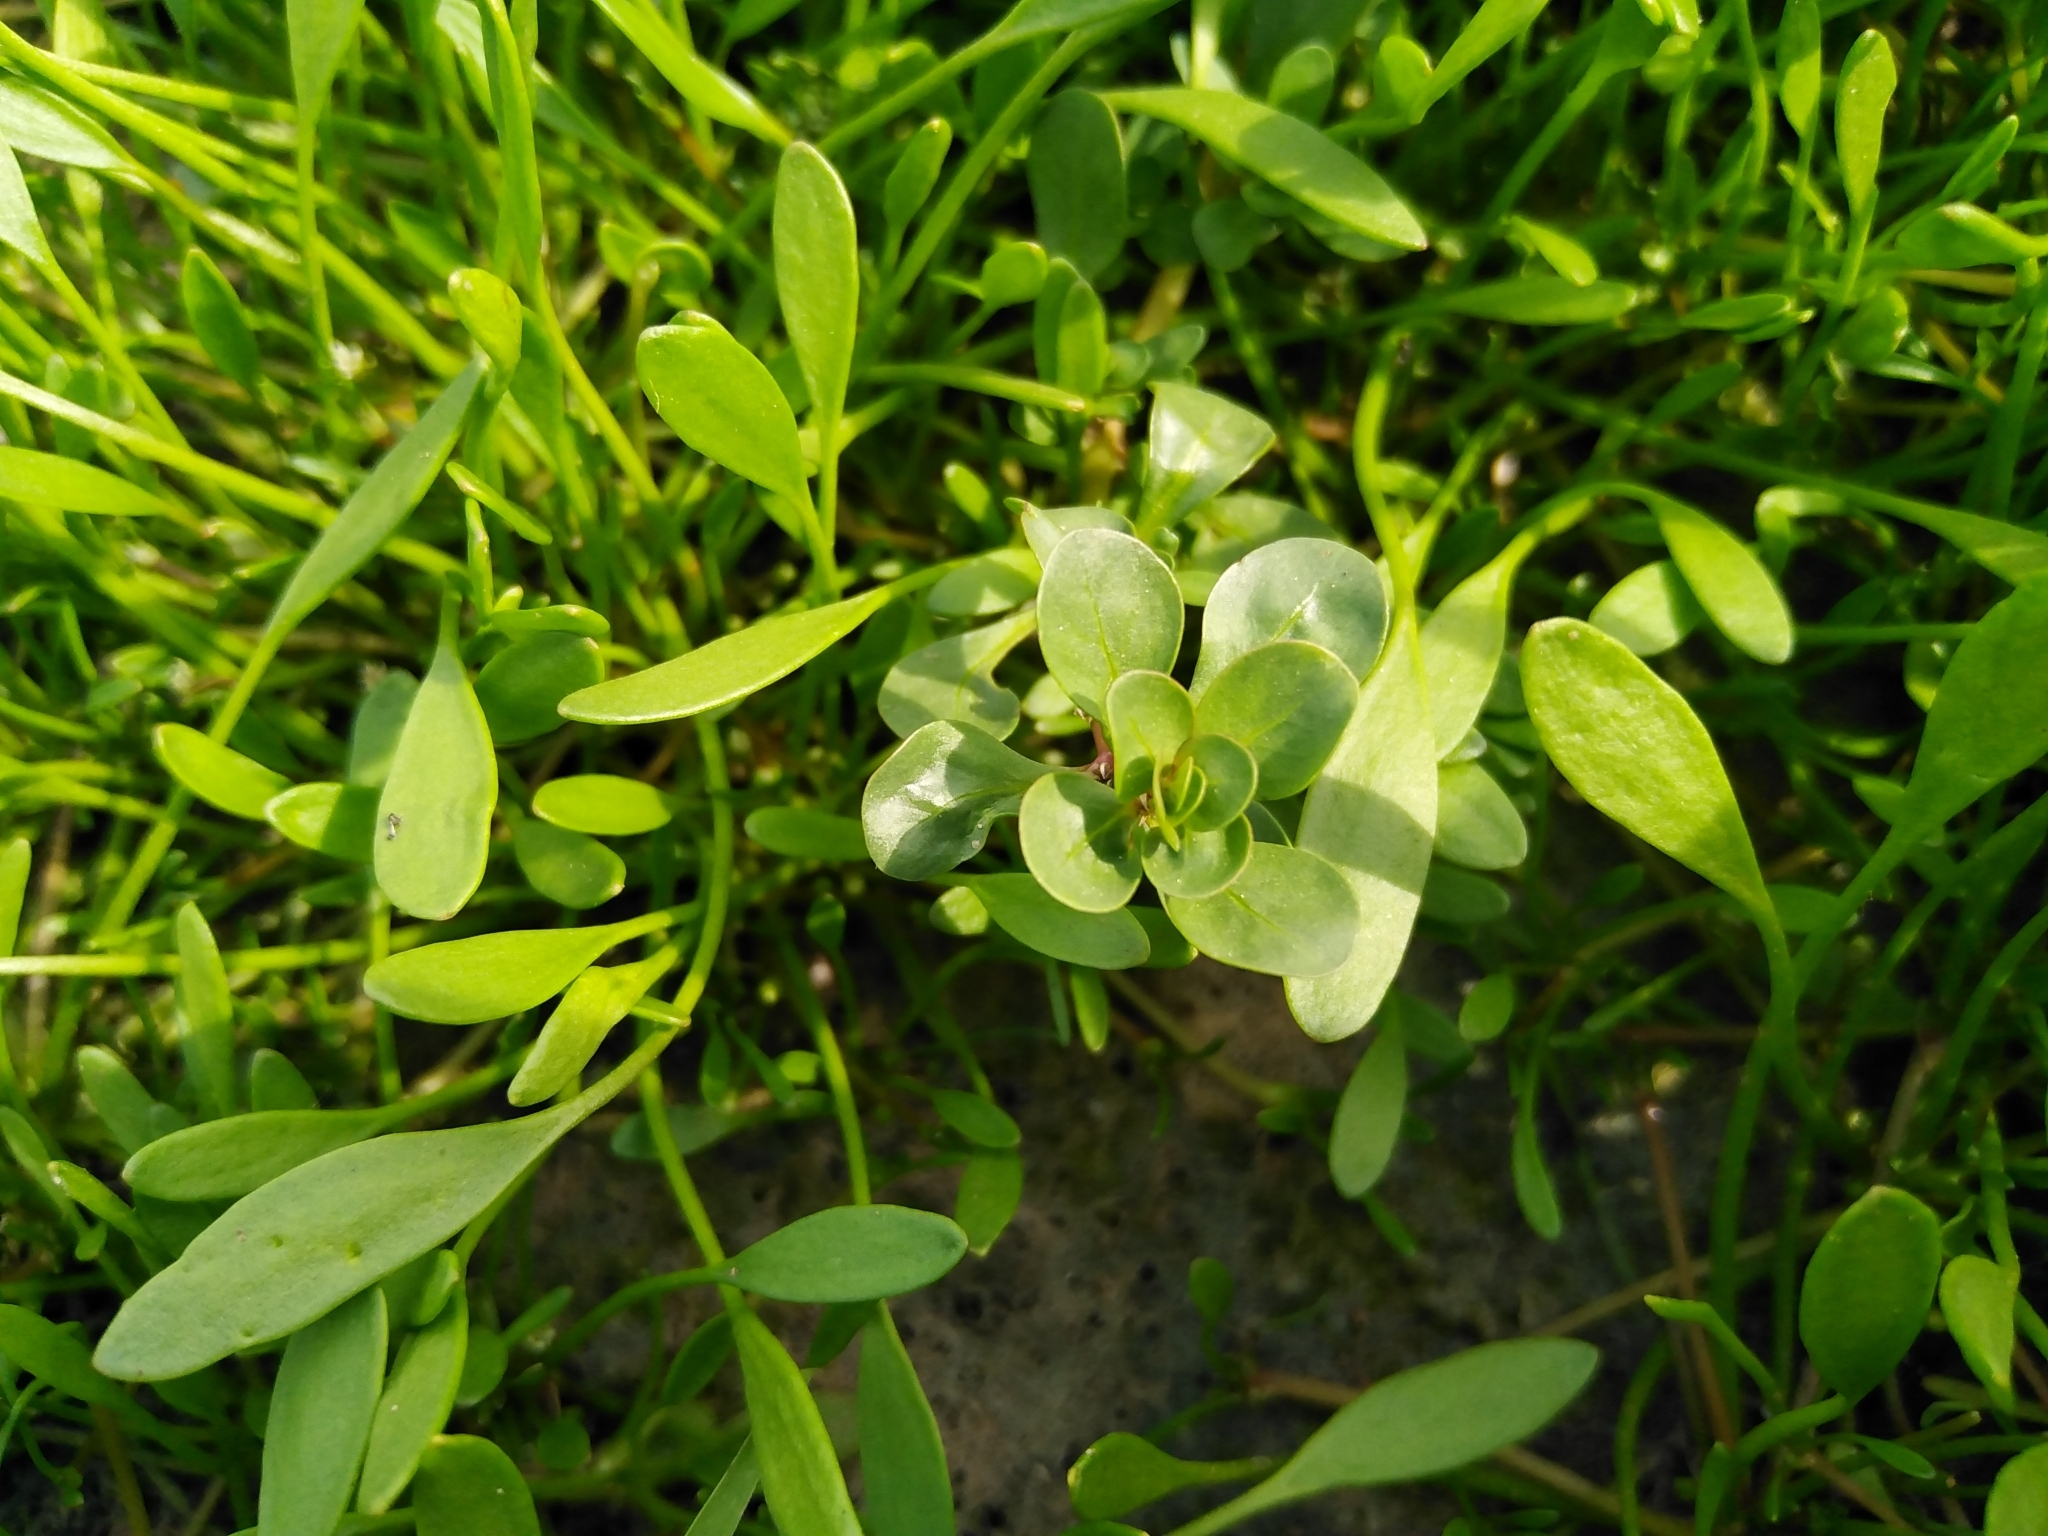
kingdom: Plantae
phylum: Tracheophyta
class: Magnoliopsida
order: Myrtales
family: Lythraceae
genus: Lythrum
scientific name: Lythrum portula
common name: Water purslane
